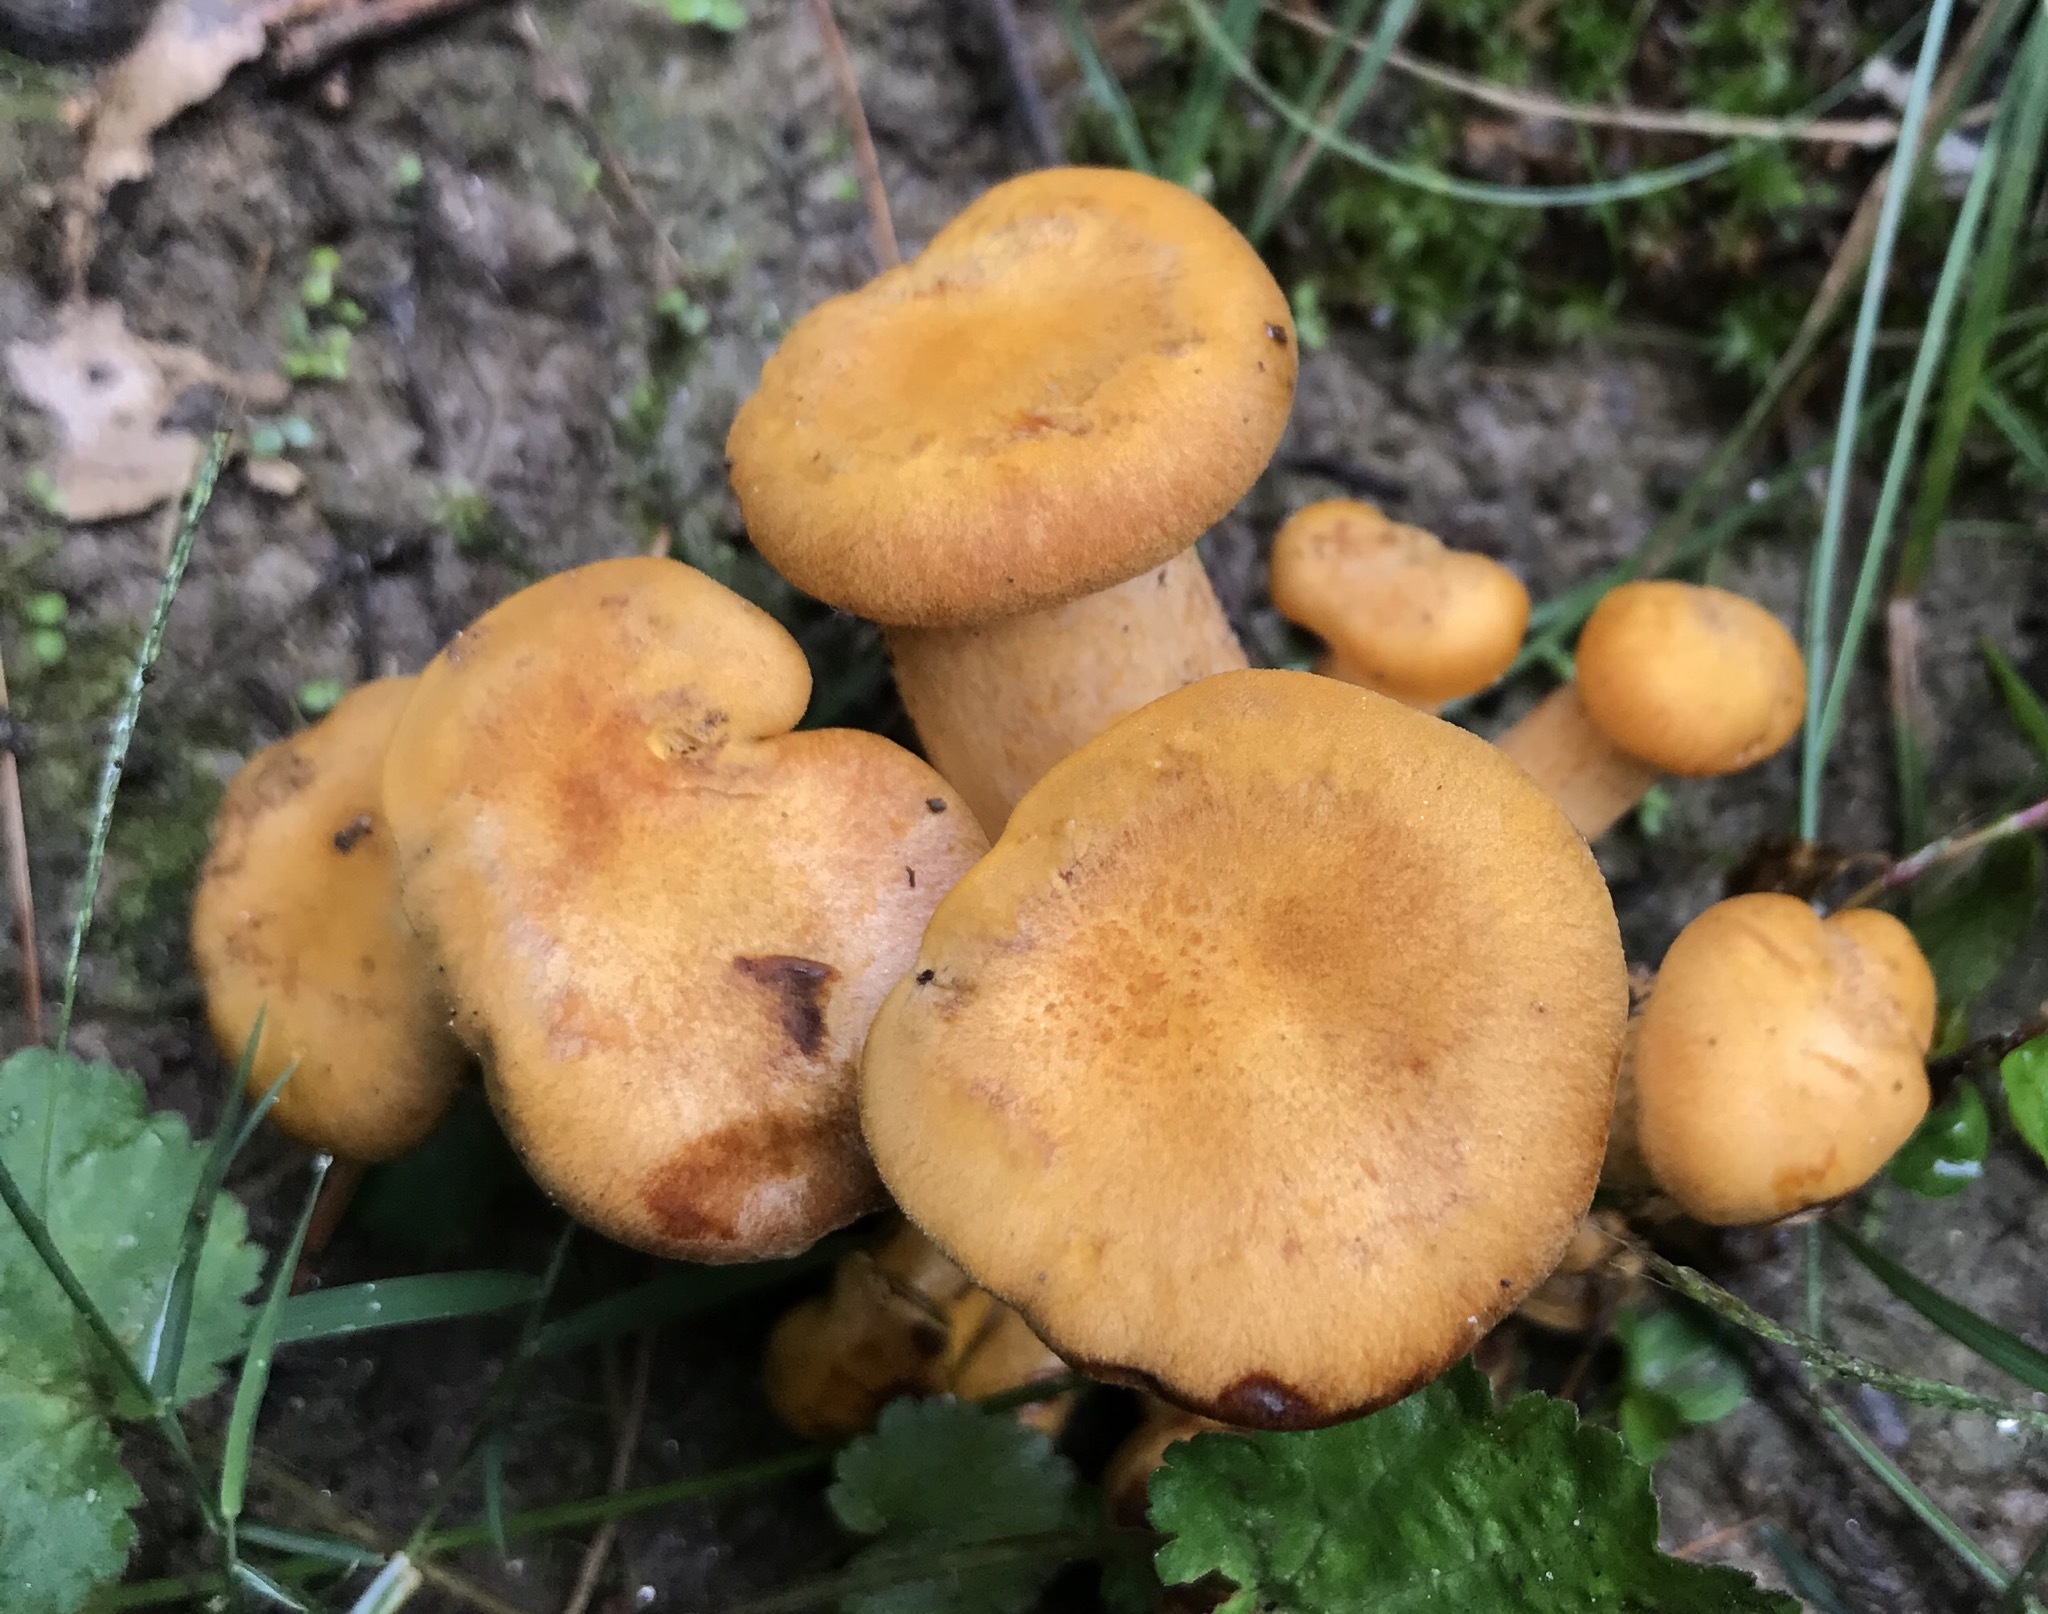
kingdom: Fungi
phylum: Basidiomycota
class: Agaricomycetes
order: Agaricales
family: Omphalotaceae
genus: Omphalotus
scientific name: Omphalotus illudens
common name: Jack o lantern
